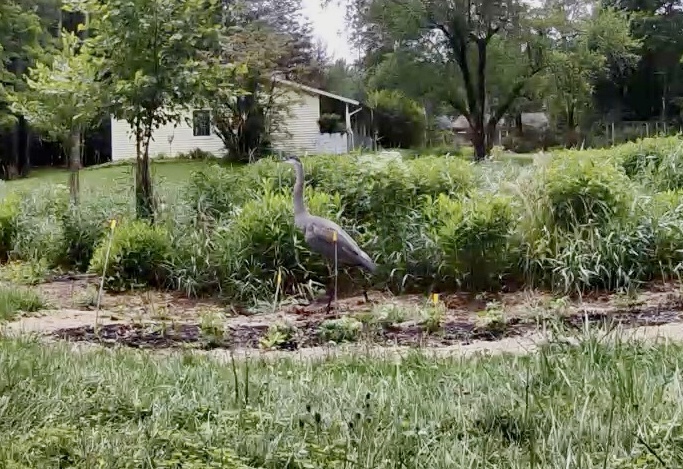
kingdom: Animalia
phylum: Chordata
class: Aves
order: Pelecaniformes
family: Ardeidae
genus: Ardea
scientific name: Ardea herodias
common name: Great blue heron
